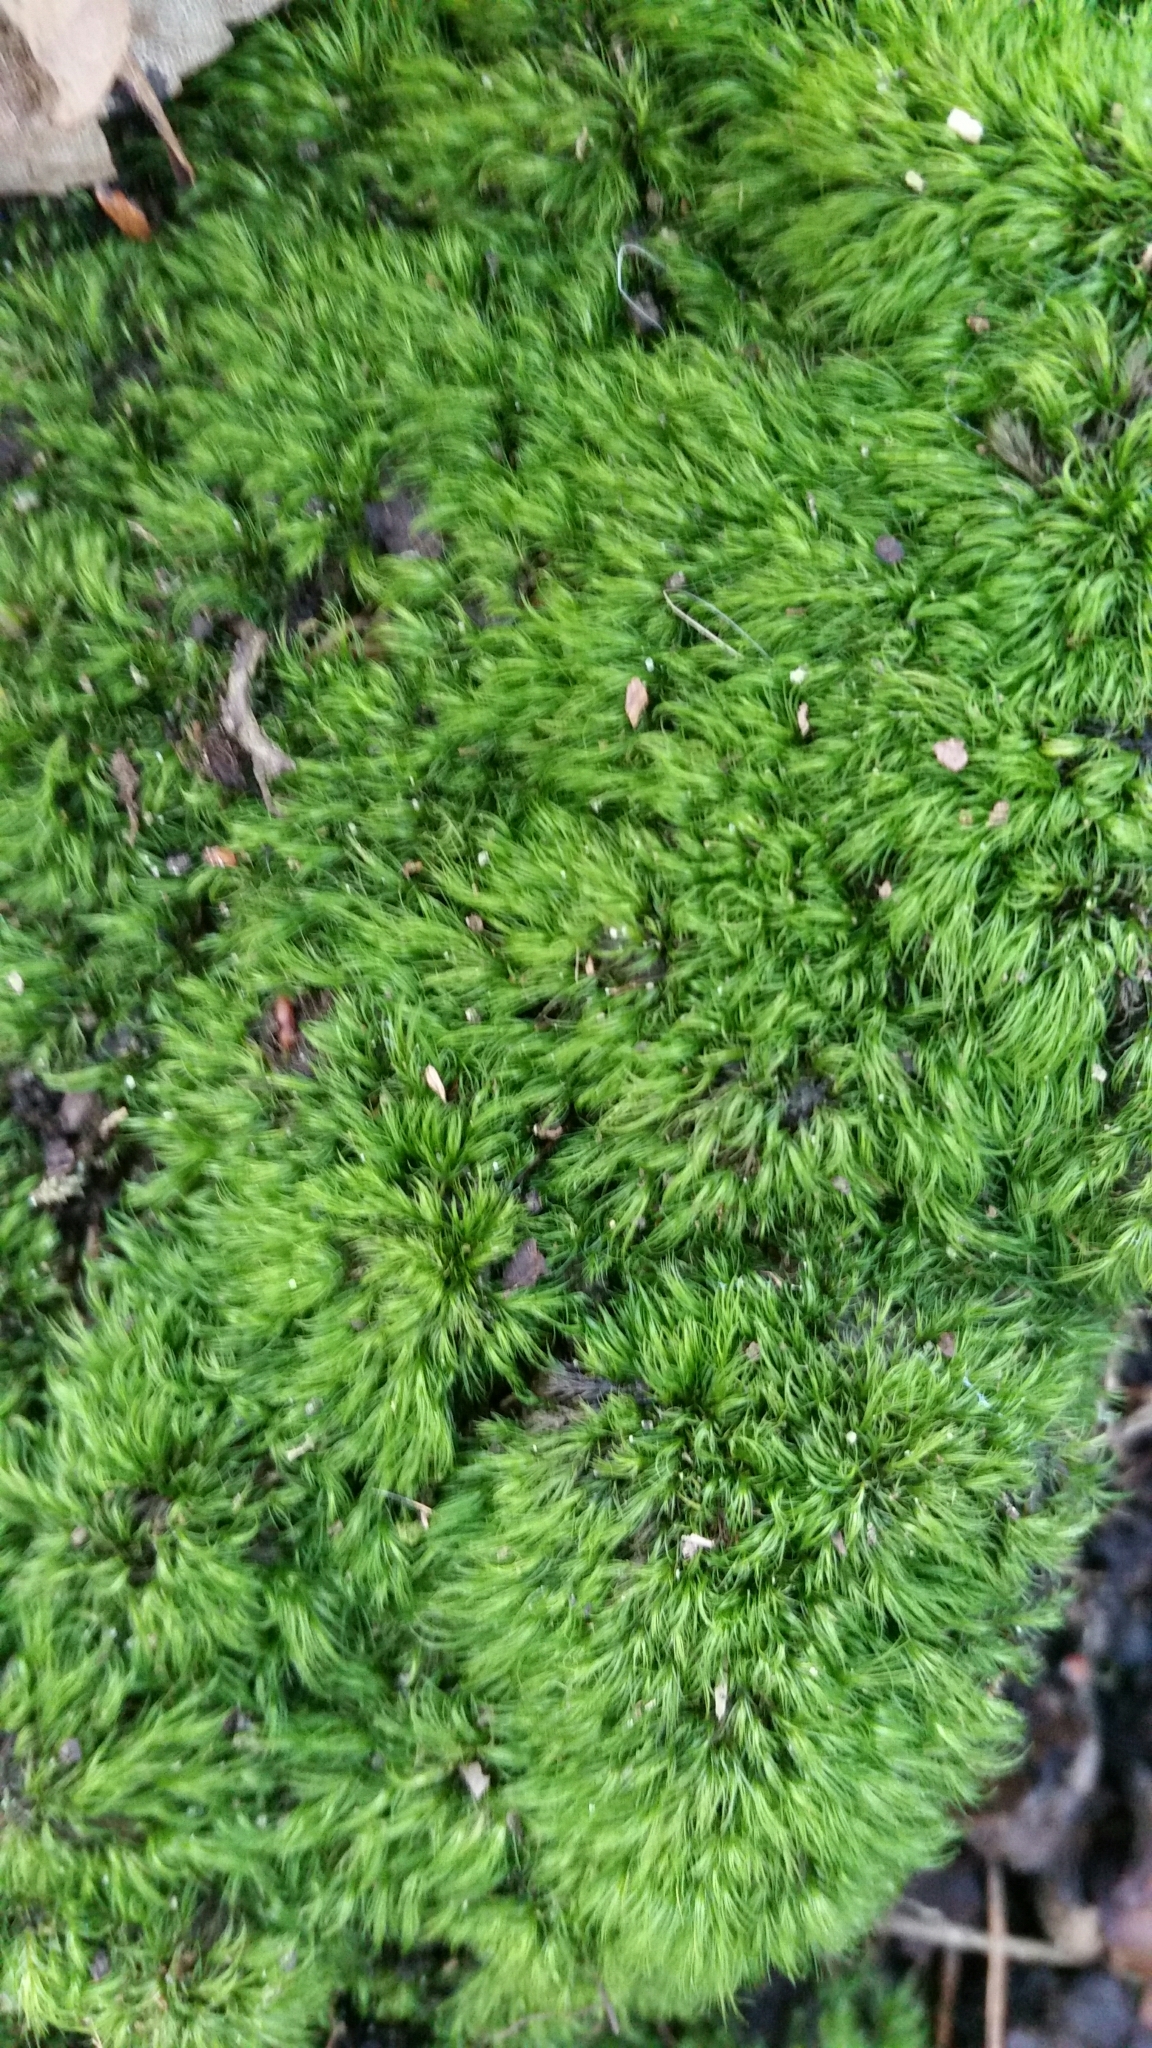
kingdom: Plantae
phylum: Bryophyta
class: Bryopsida
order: Dicranales
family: Dicranellaceae
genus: Dicranella
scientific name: Dicranella heteromalla
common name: Silky forklet moss
